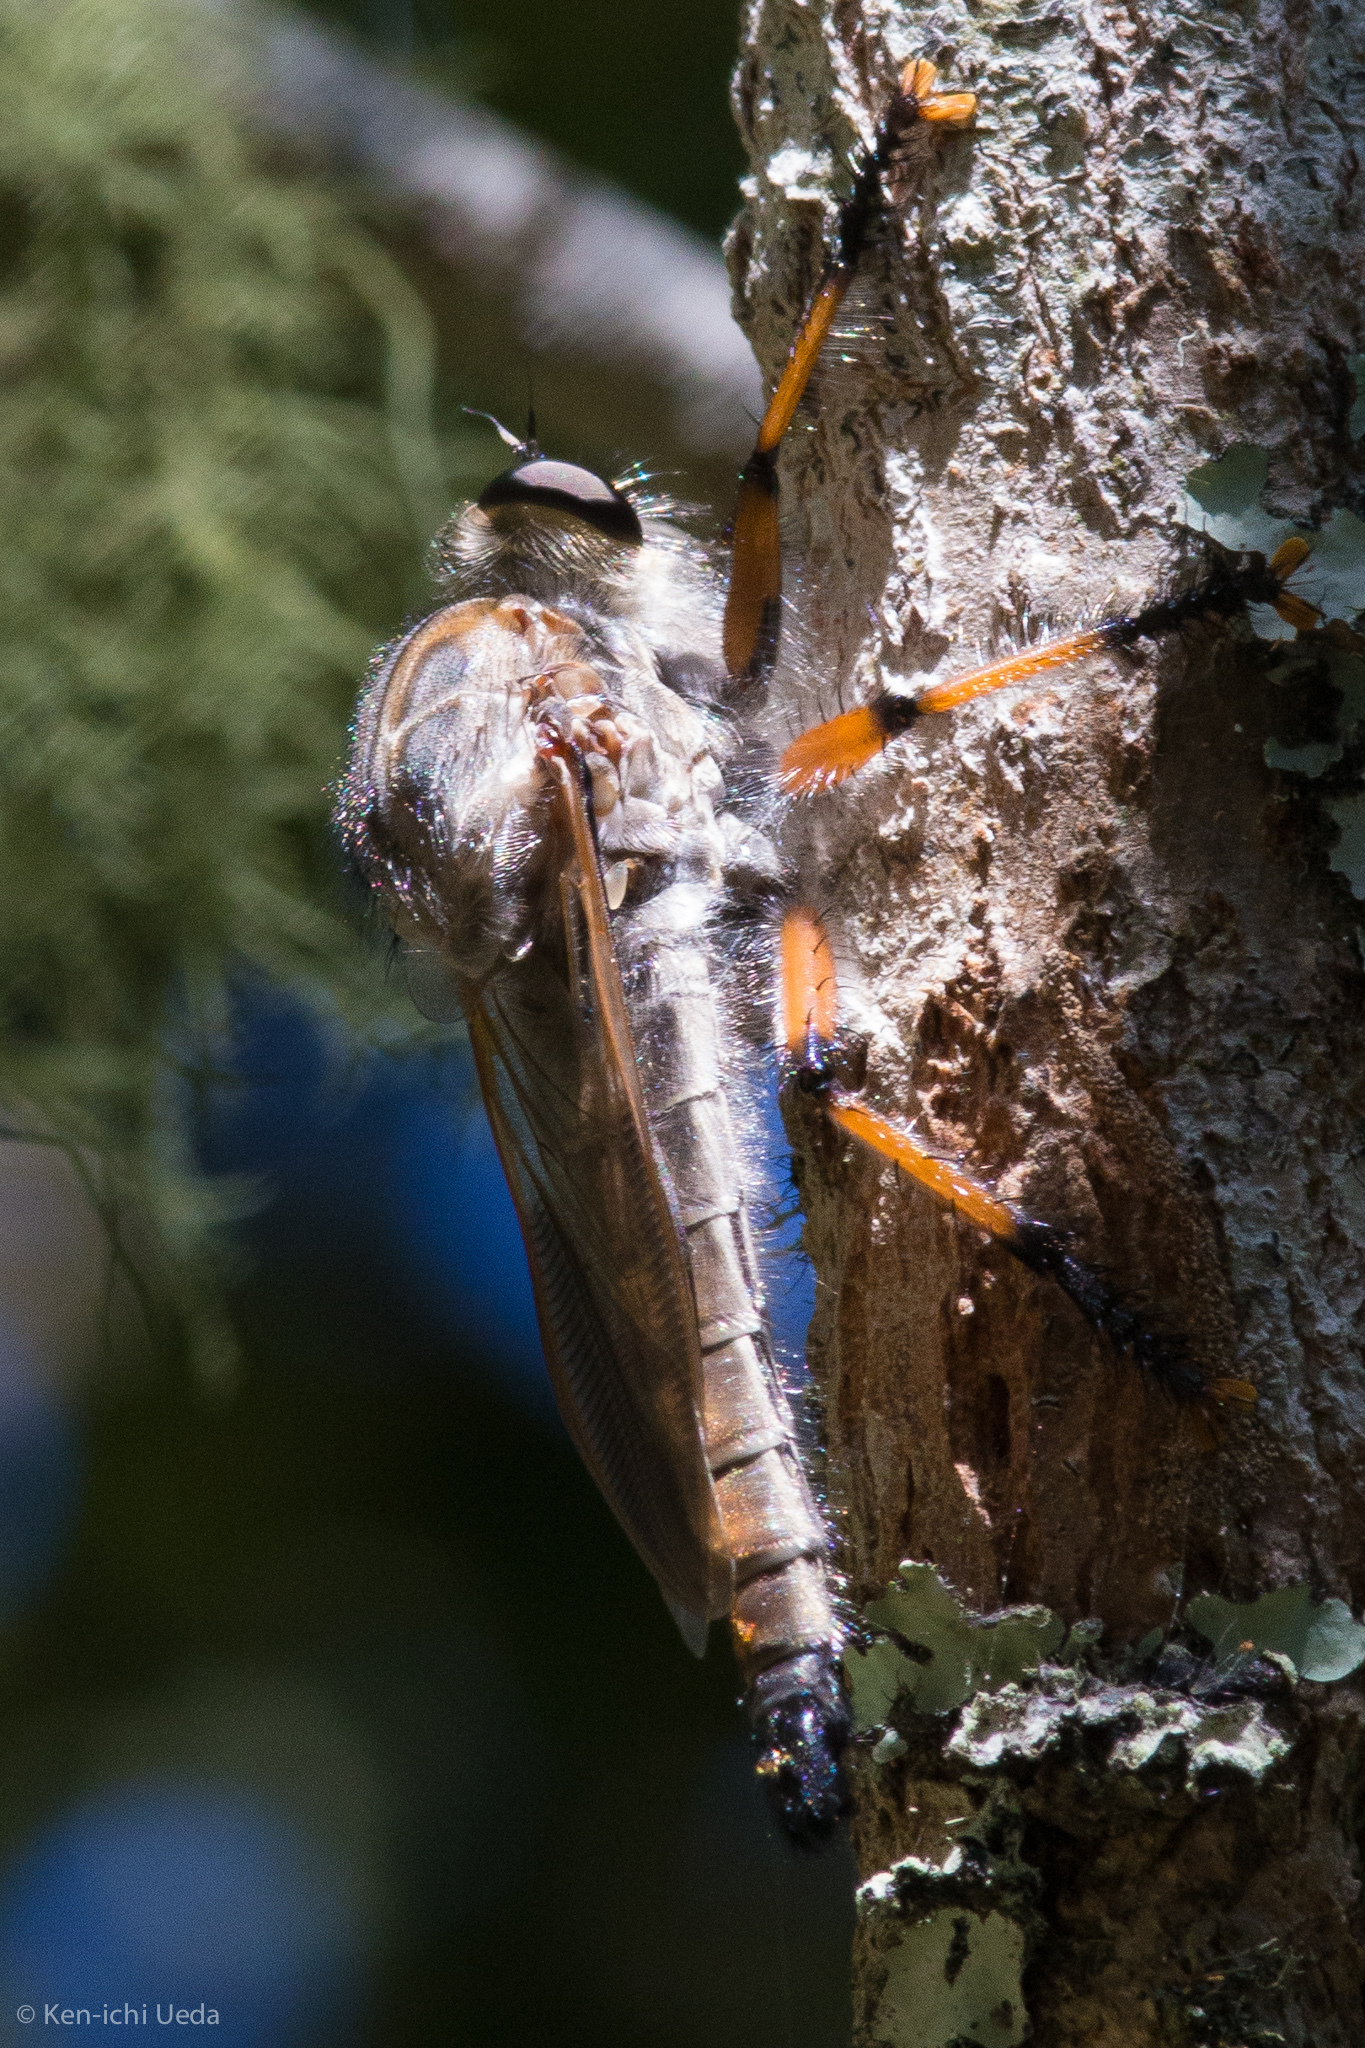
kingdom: Animalia
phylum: Arthropoda
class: Insecta
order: Diptera
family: Asilidae
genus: Neoaratus
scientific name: Neoaratus hercules
